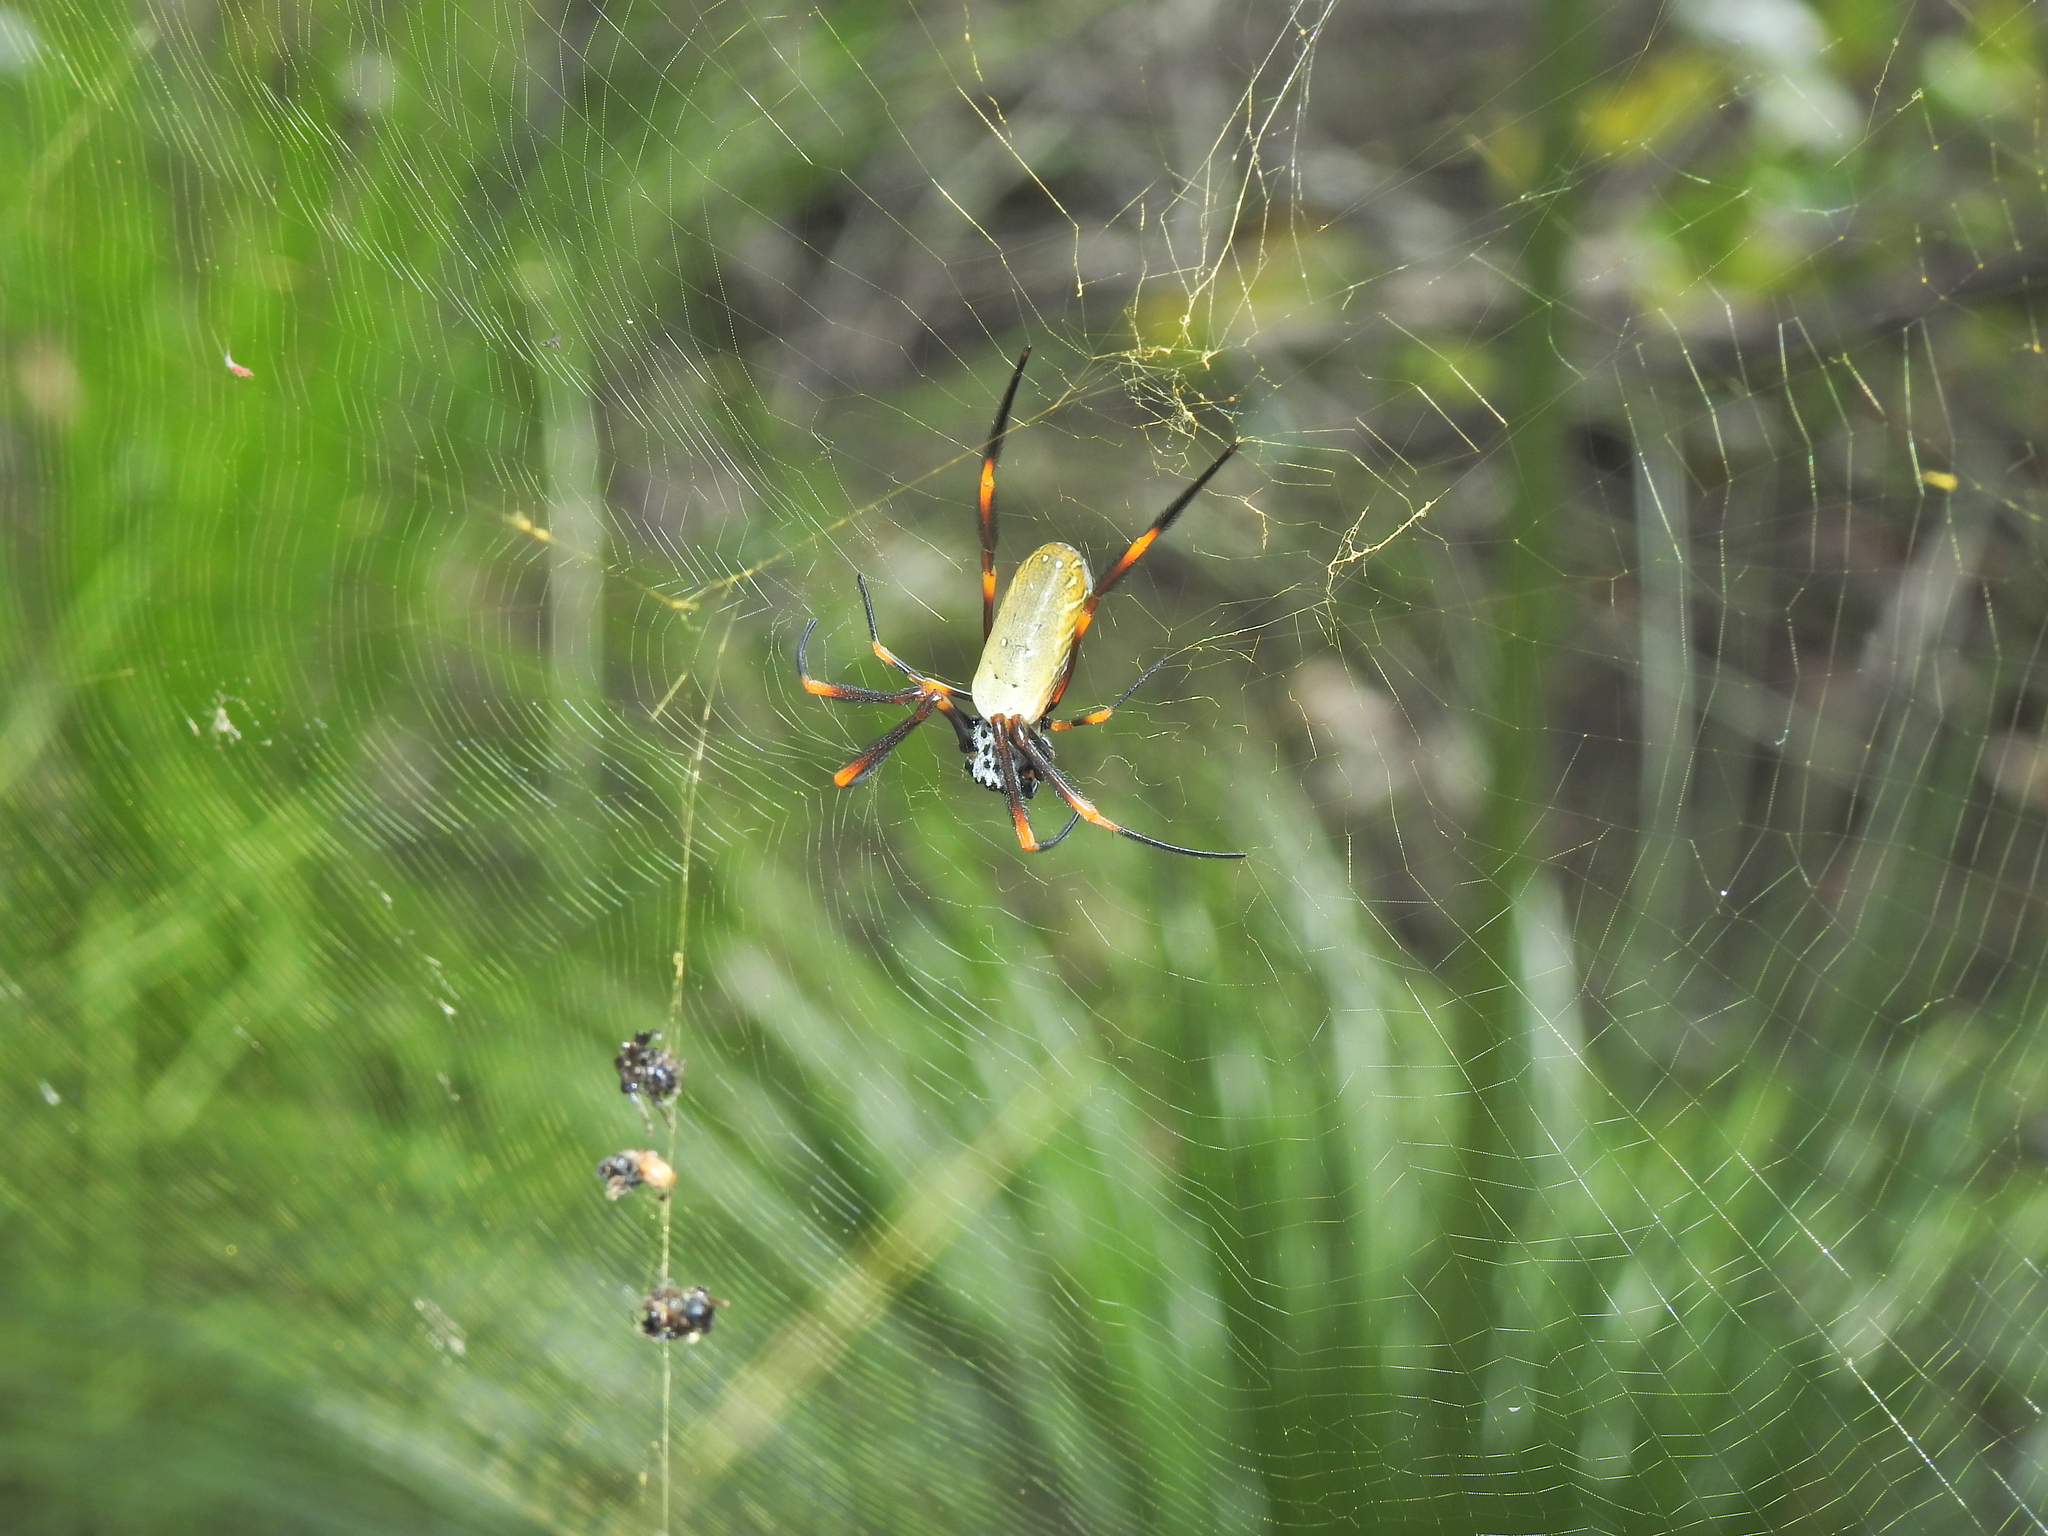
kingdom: Animalia
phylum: Arthropoda
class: Arachnida
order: Araneae
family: Araneidae
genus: Trichonephila
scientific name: Trichonephila plumipes
